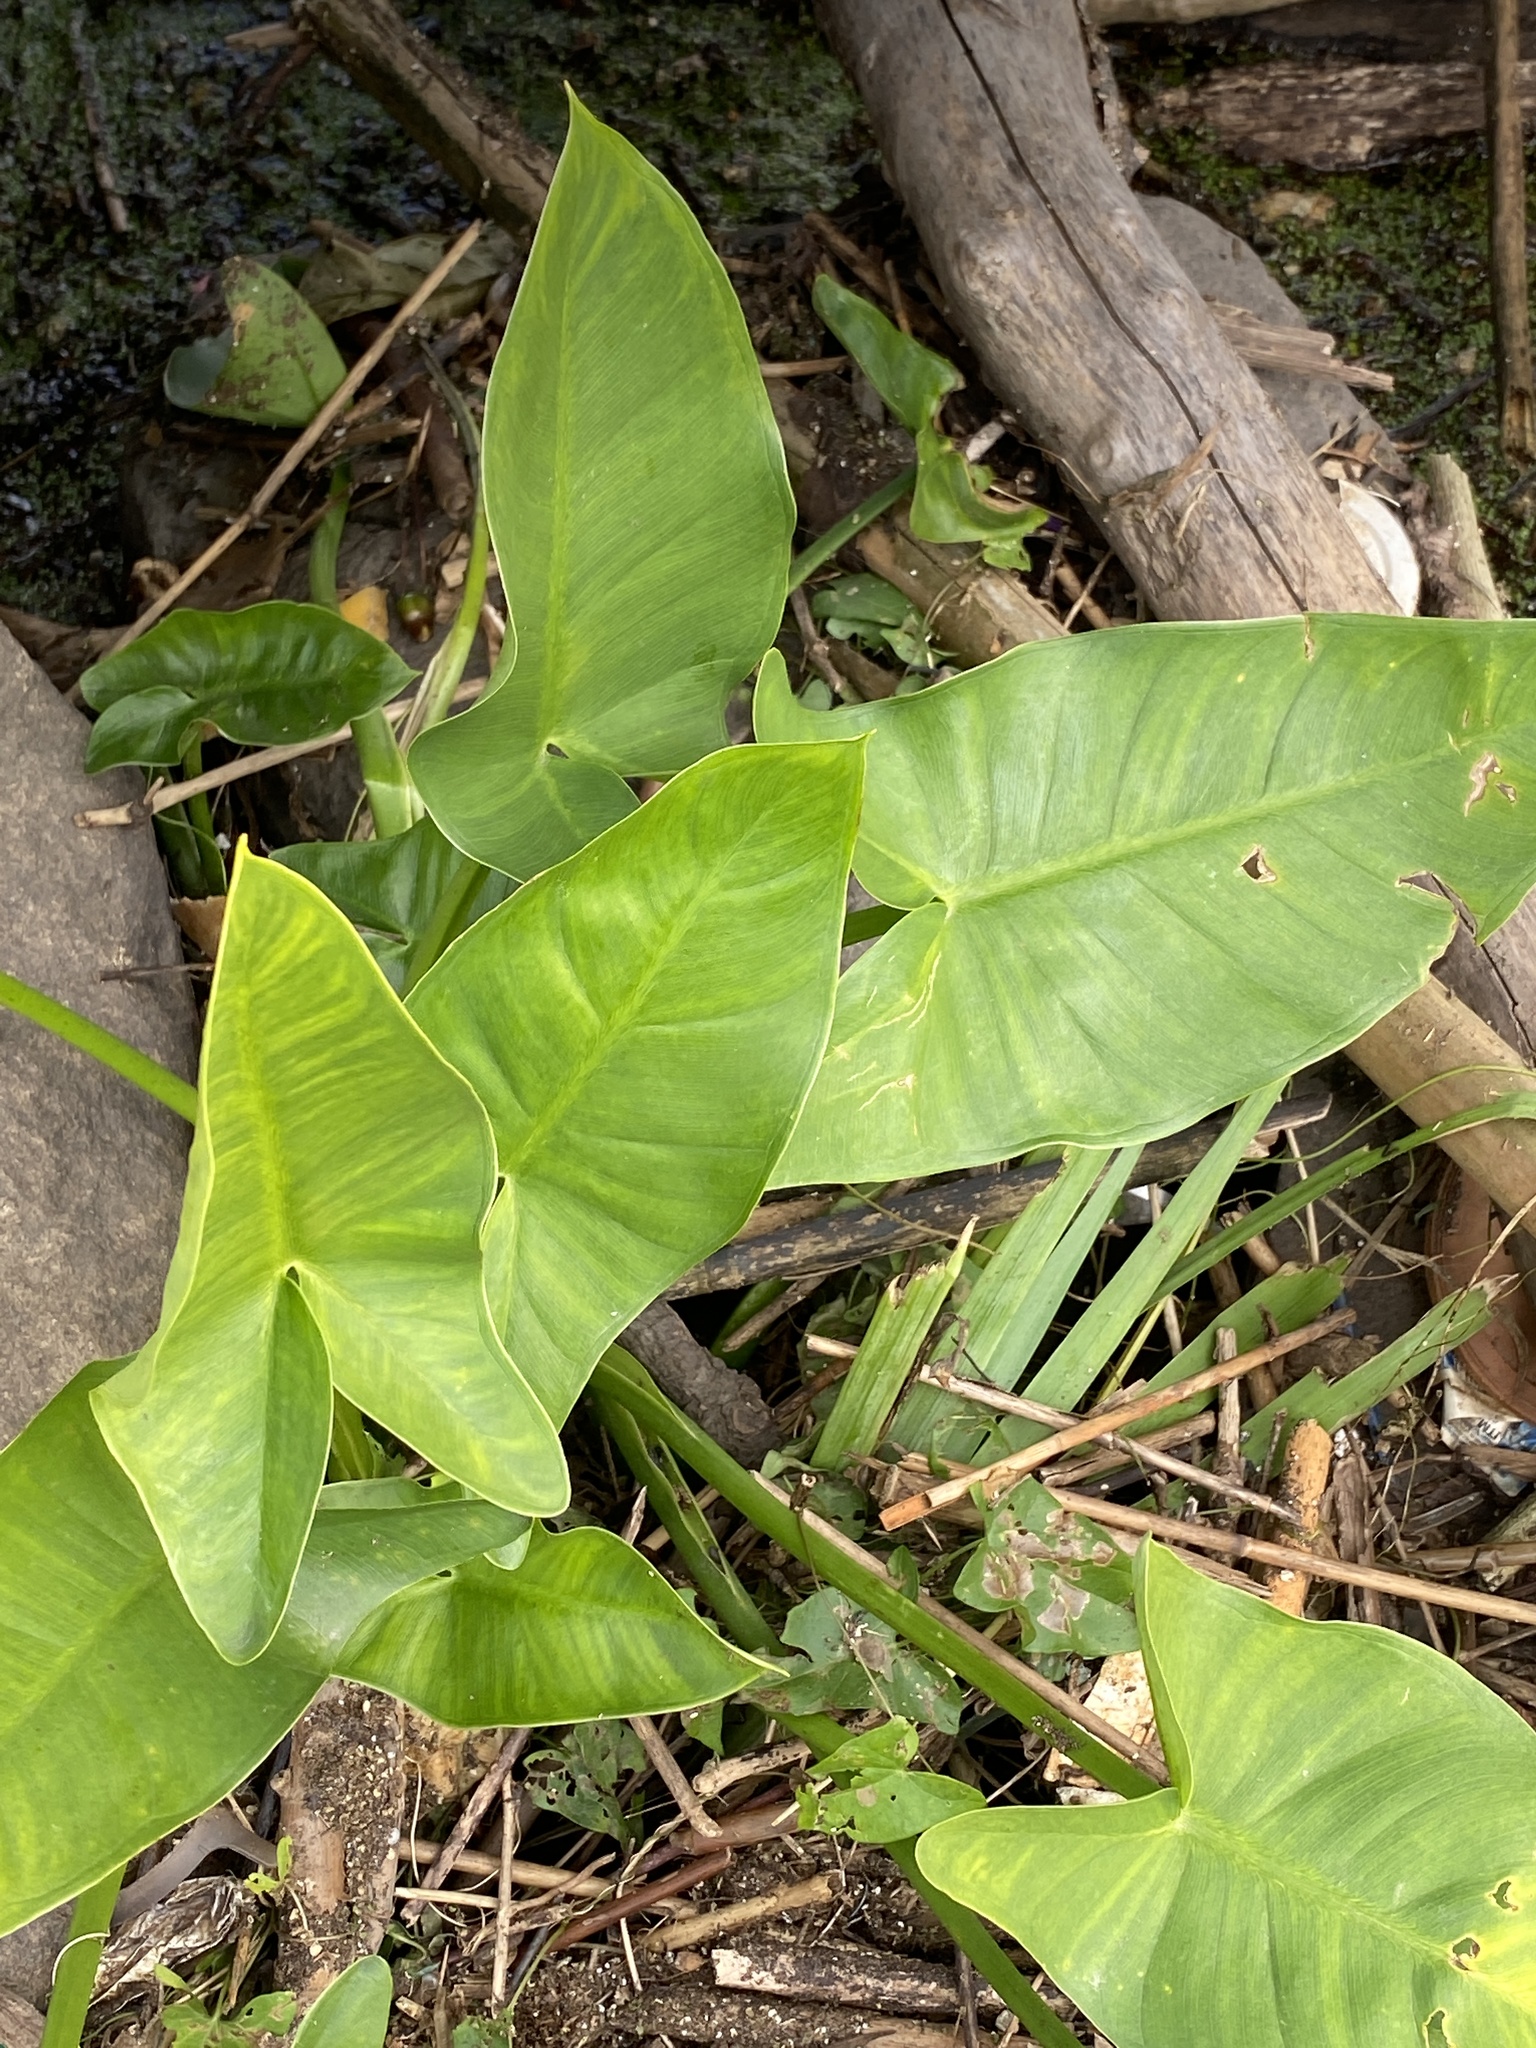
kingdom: Plantae
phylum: Tracheophyta
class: Liliopsida
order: Alismatales
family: Araceae
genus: Peltandra
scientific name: Peltandra virginica
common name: Arrow arum
